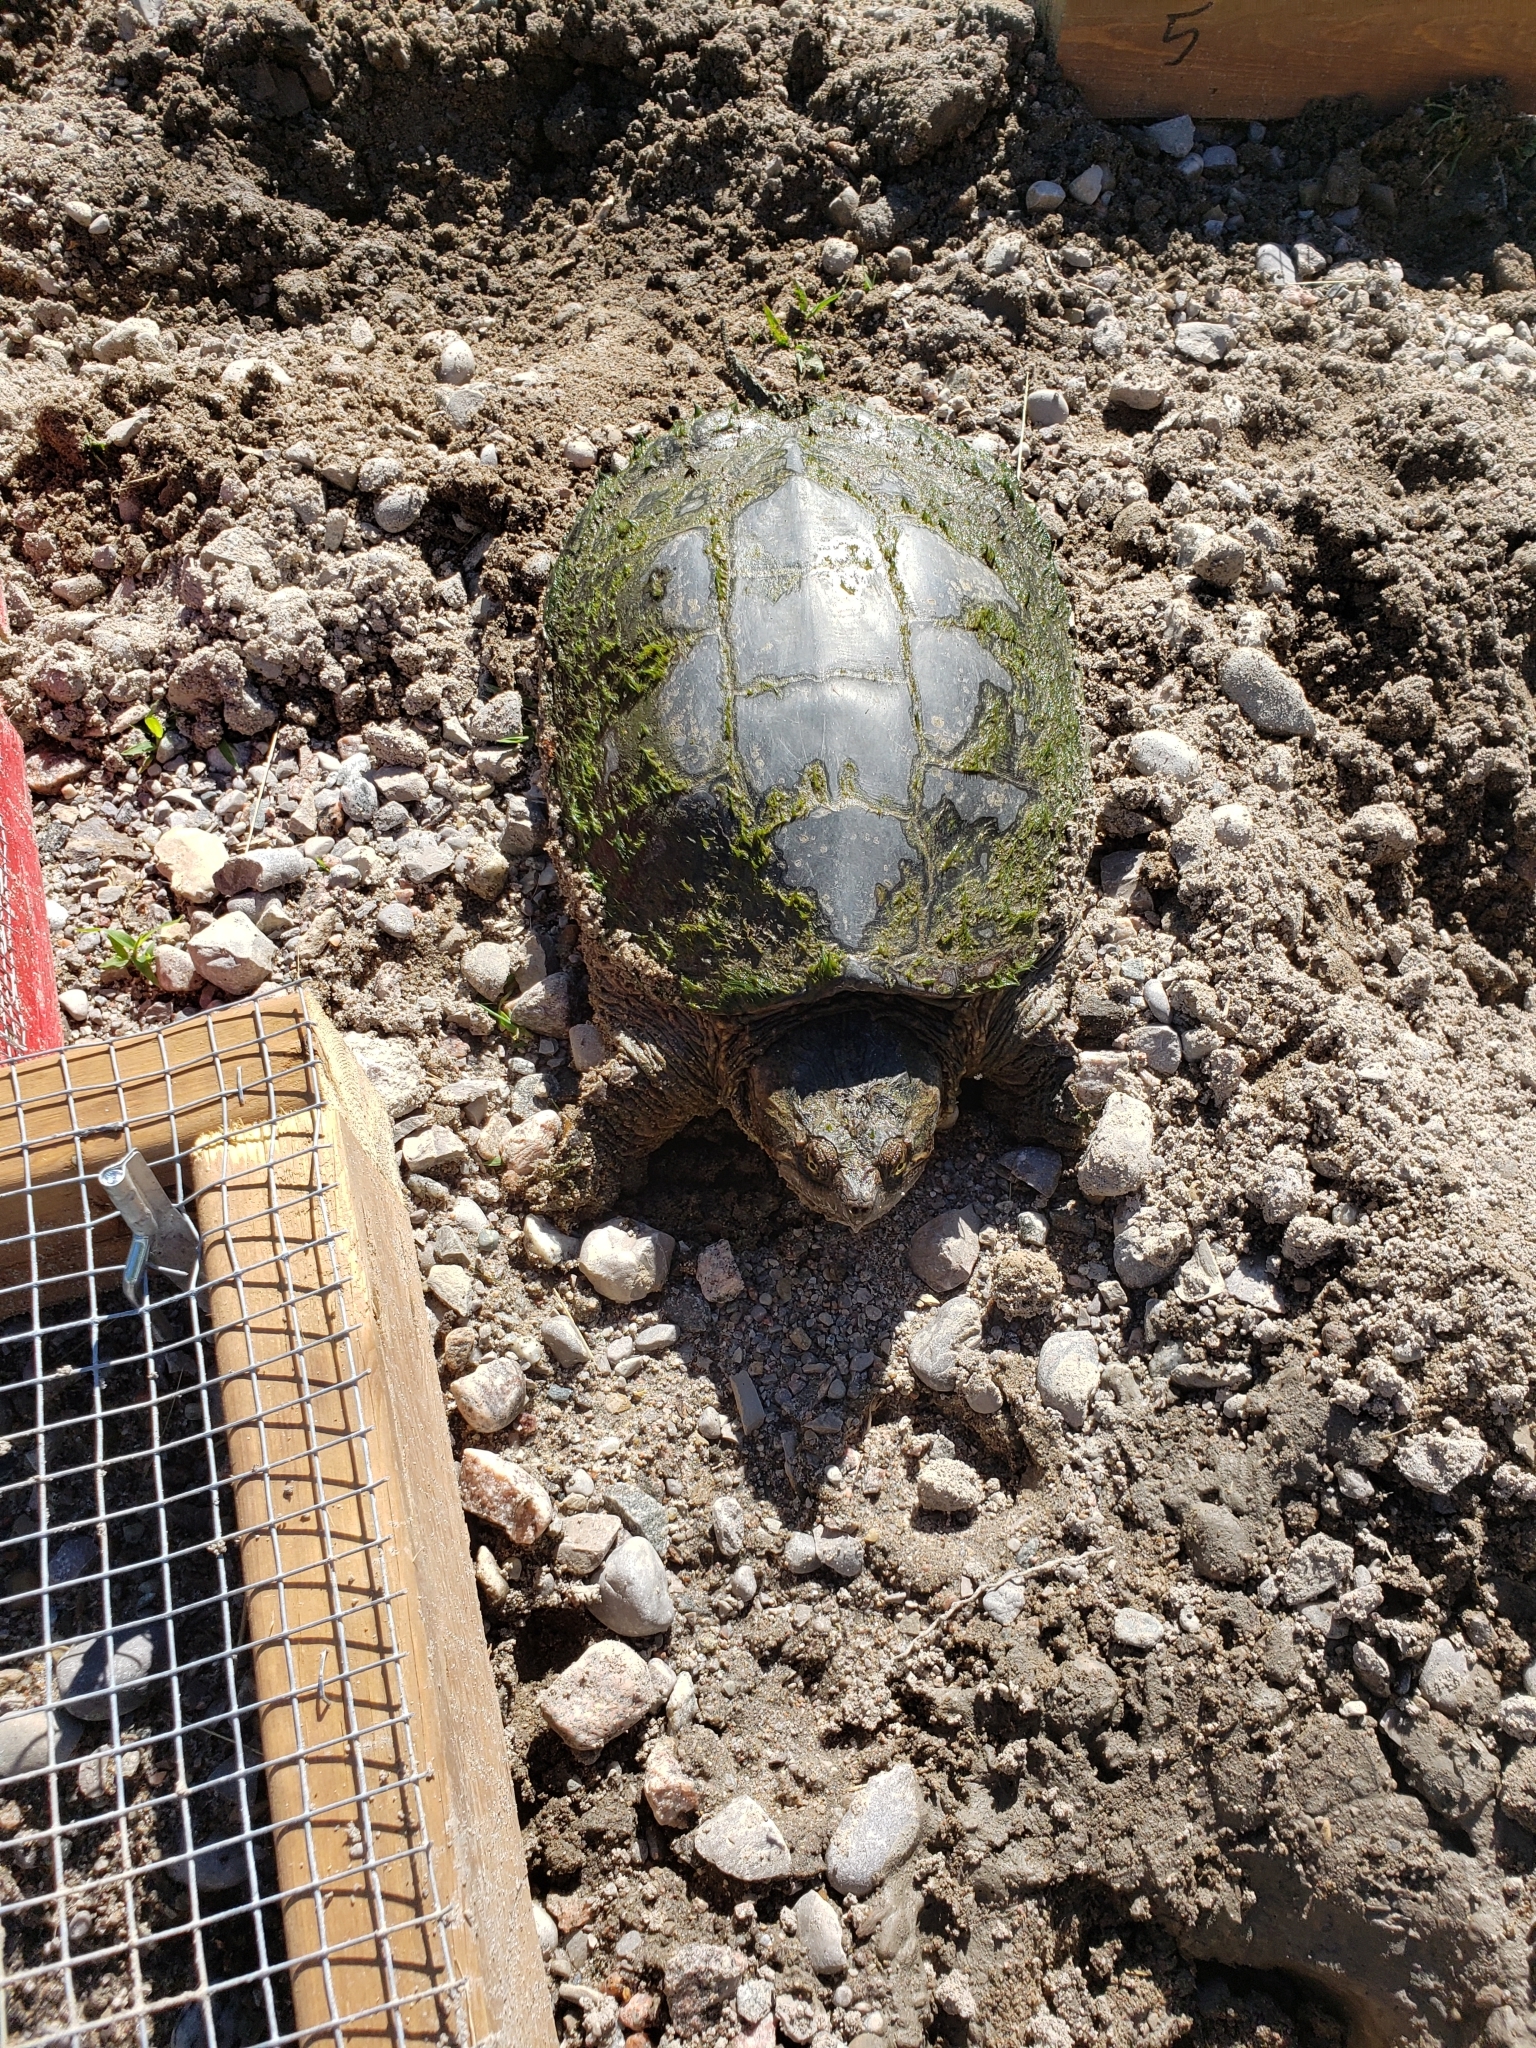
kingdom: Animalia
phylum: Chordata
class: Testudines
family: Chelydridae
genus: Chelydra
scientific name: Chelydra serpentina
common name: Common snapping turtle
